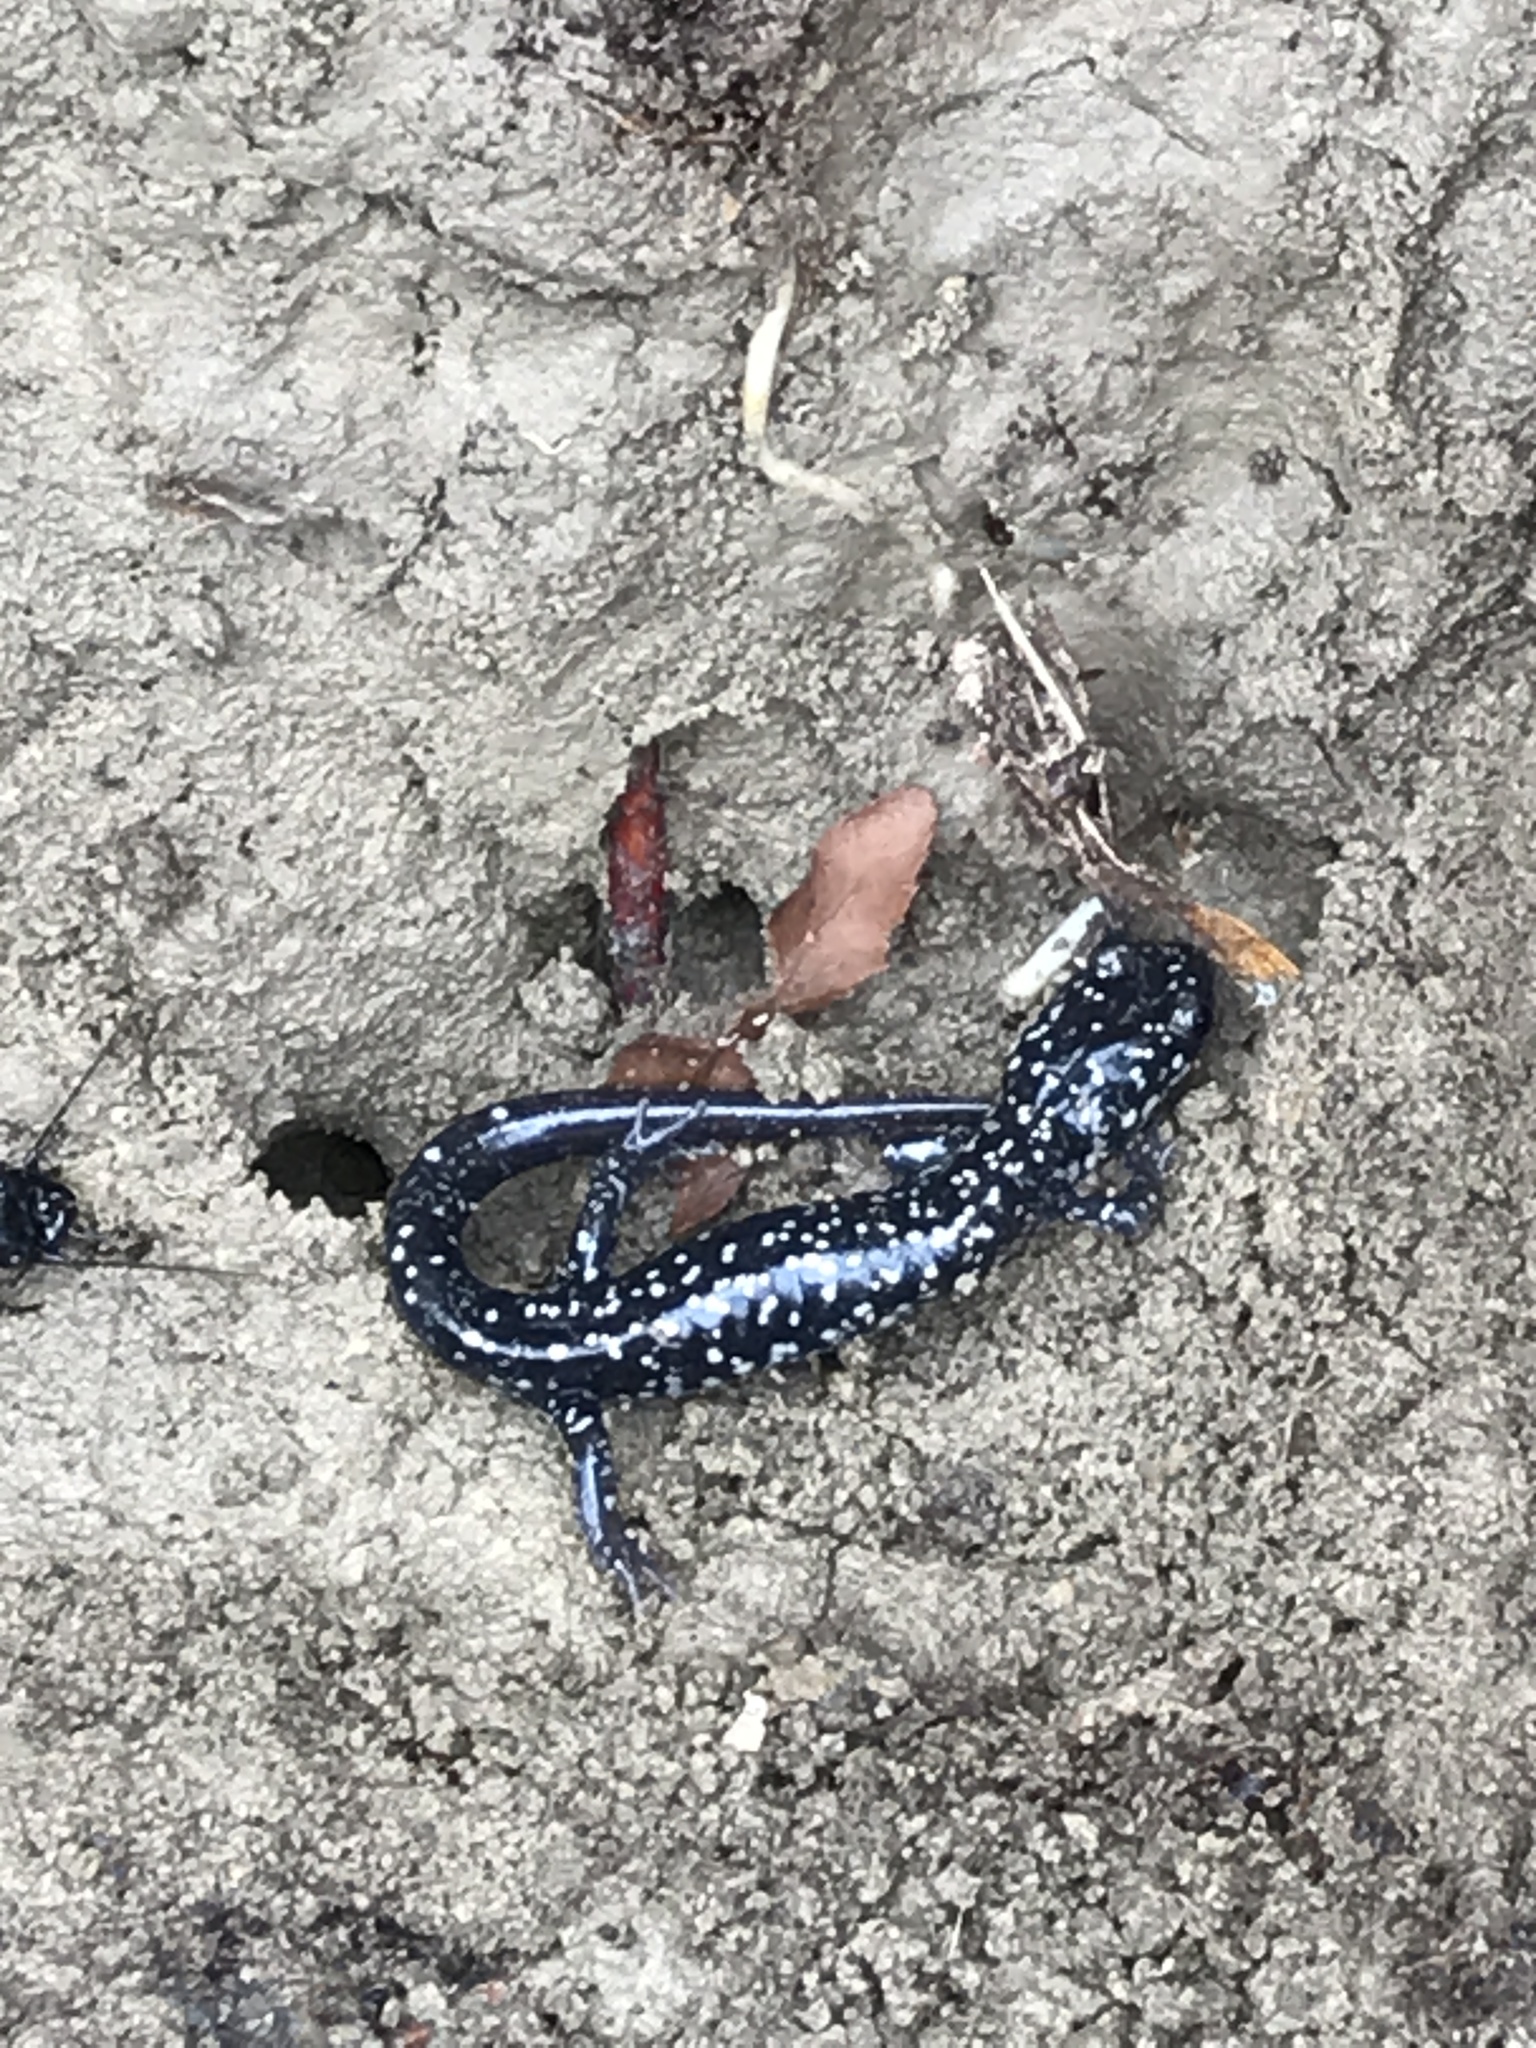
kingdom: Animalia
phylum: Chordata
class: Amphibia
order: Caudata
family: Plethodontidae
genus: Plethodon
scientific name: Plethodon glutinosus
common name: Northern slimy salamander
